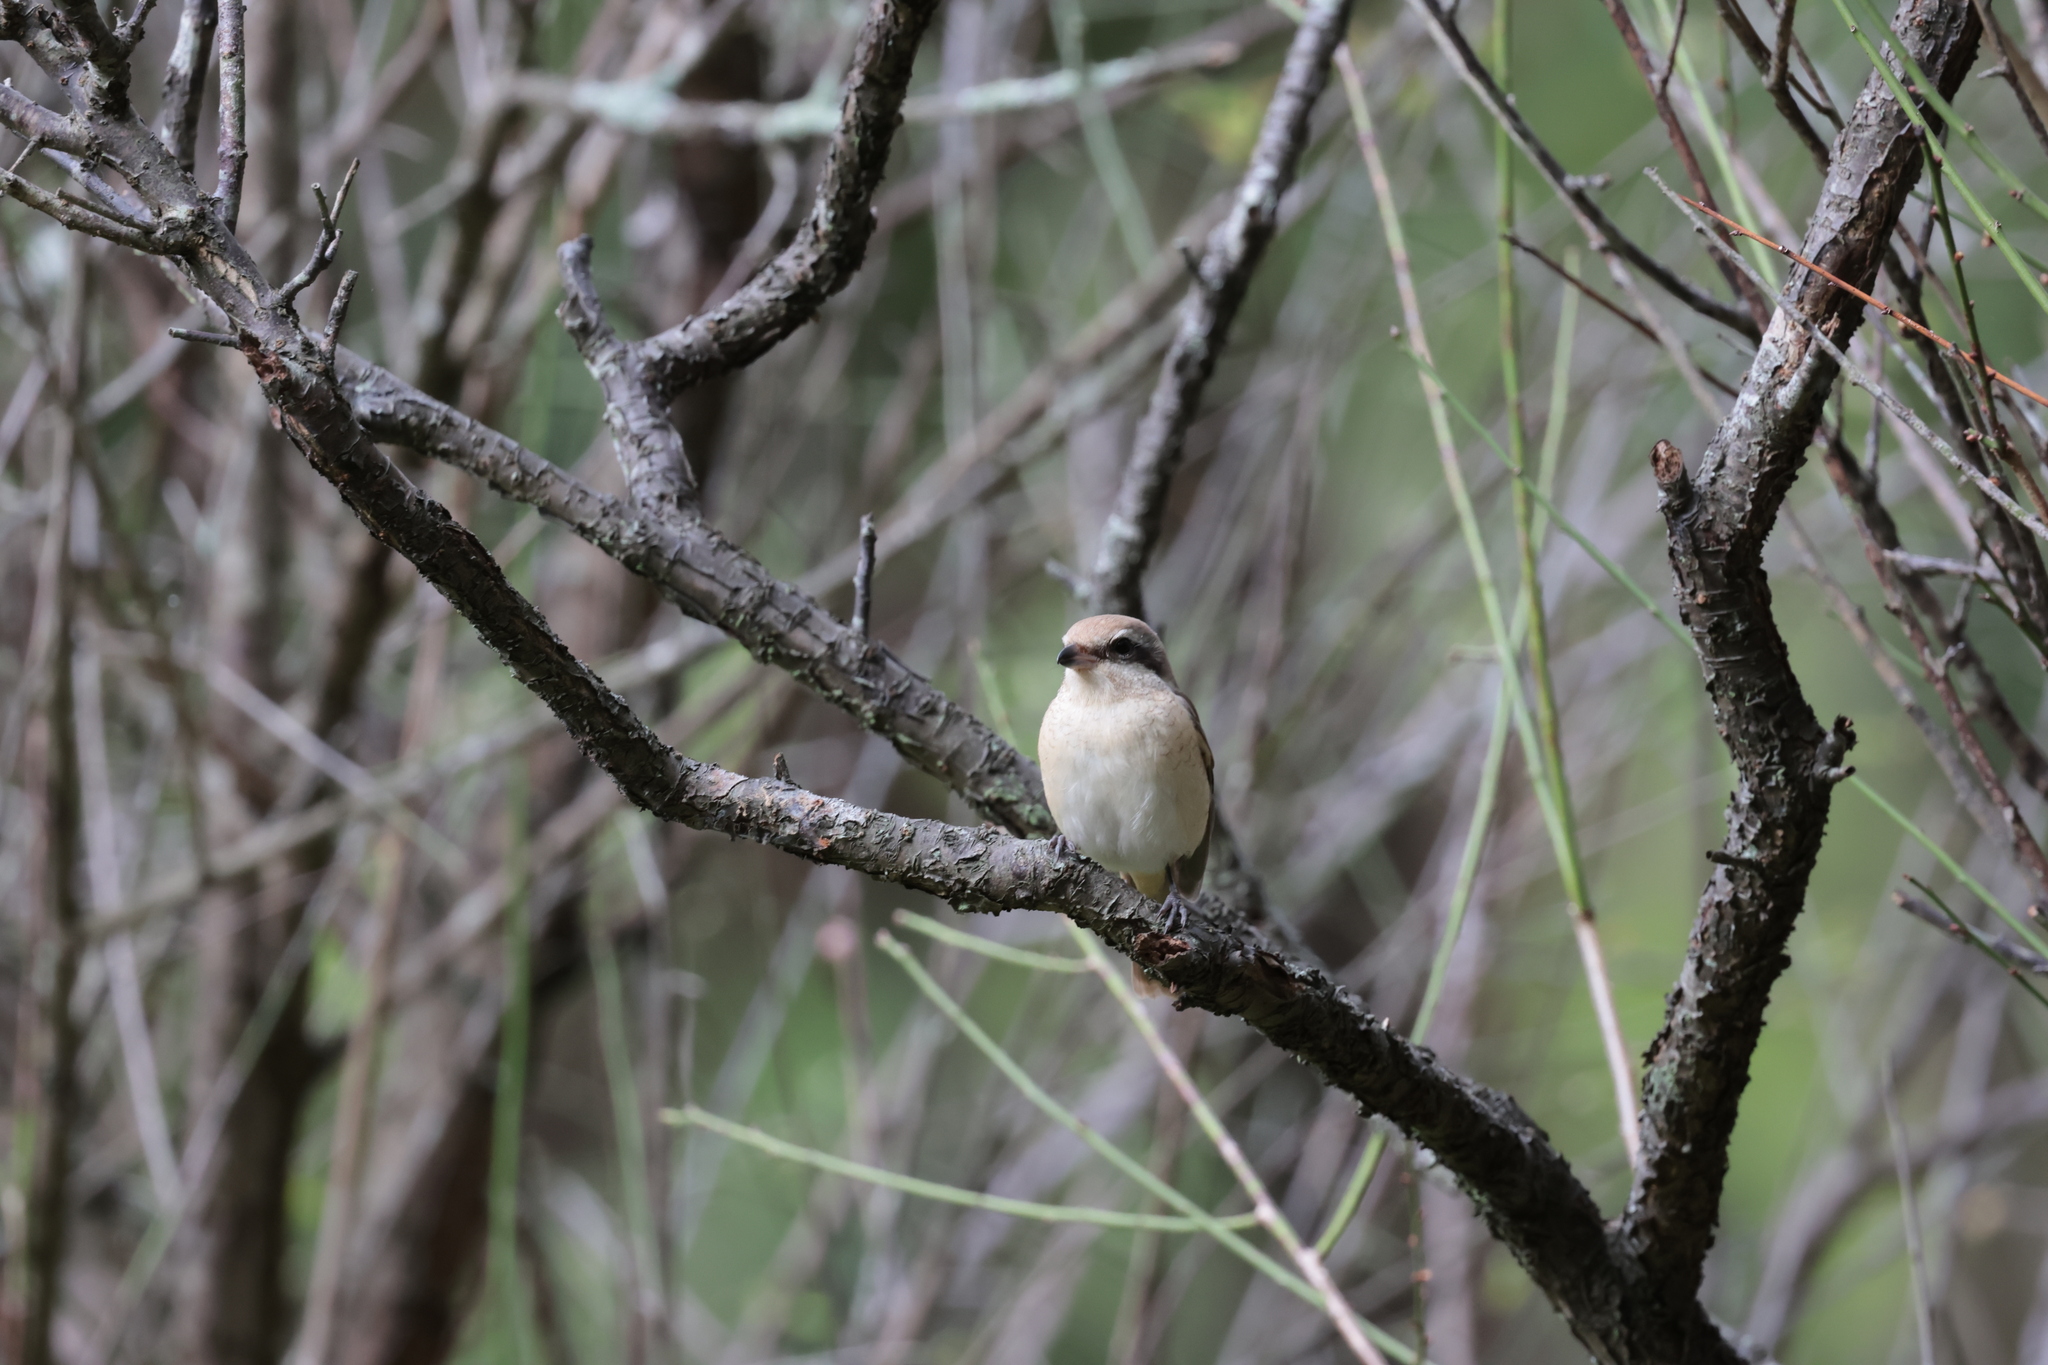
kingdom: Animalia
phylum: Chordata
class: Aves
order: Passeriformes
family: Laniidae
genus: Lanius
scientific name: Lanius cristatus
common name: Brown shrike
